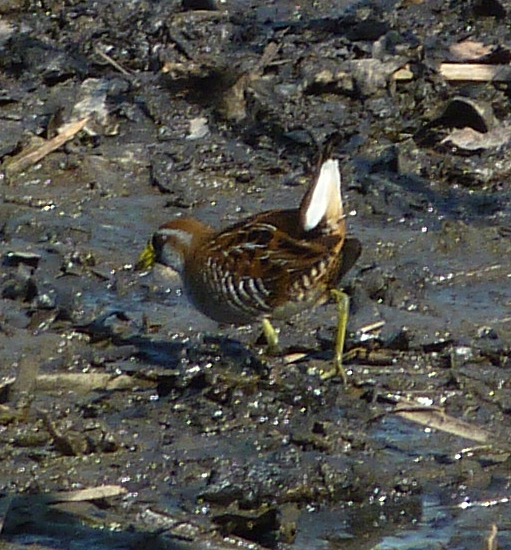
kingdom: Animalia
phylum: Chordata
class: Aves
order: Gruiformes
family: Rallidae
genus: Porzana
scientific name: Porzana carolina
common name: Sora
